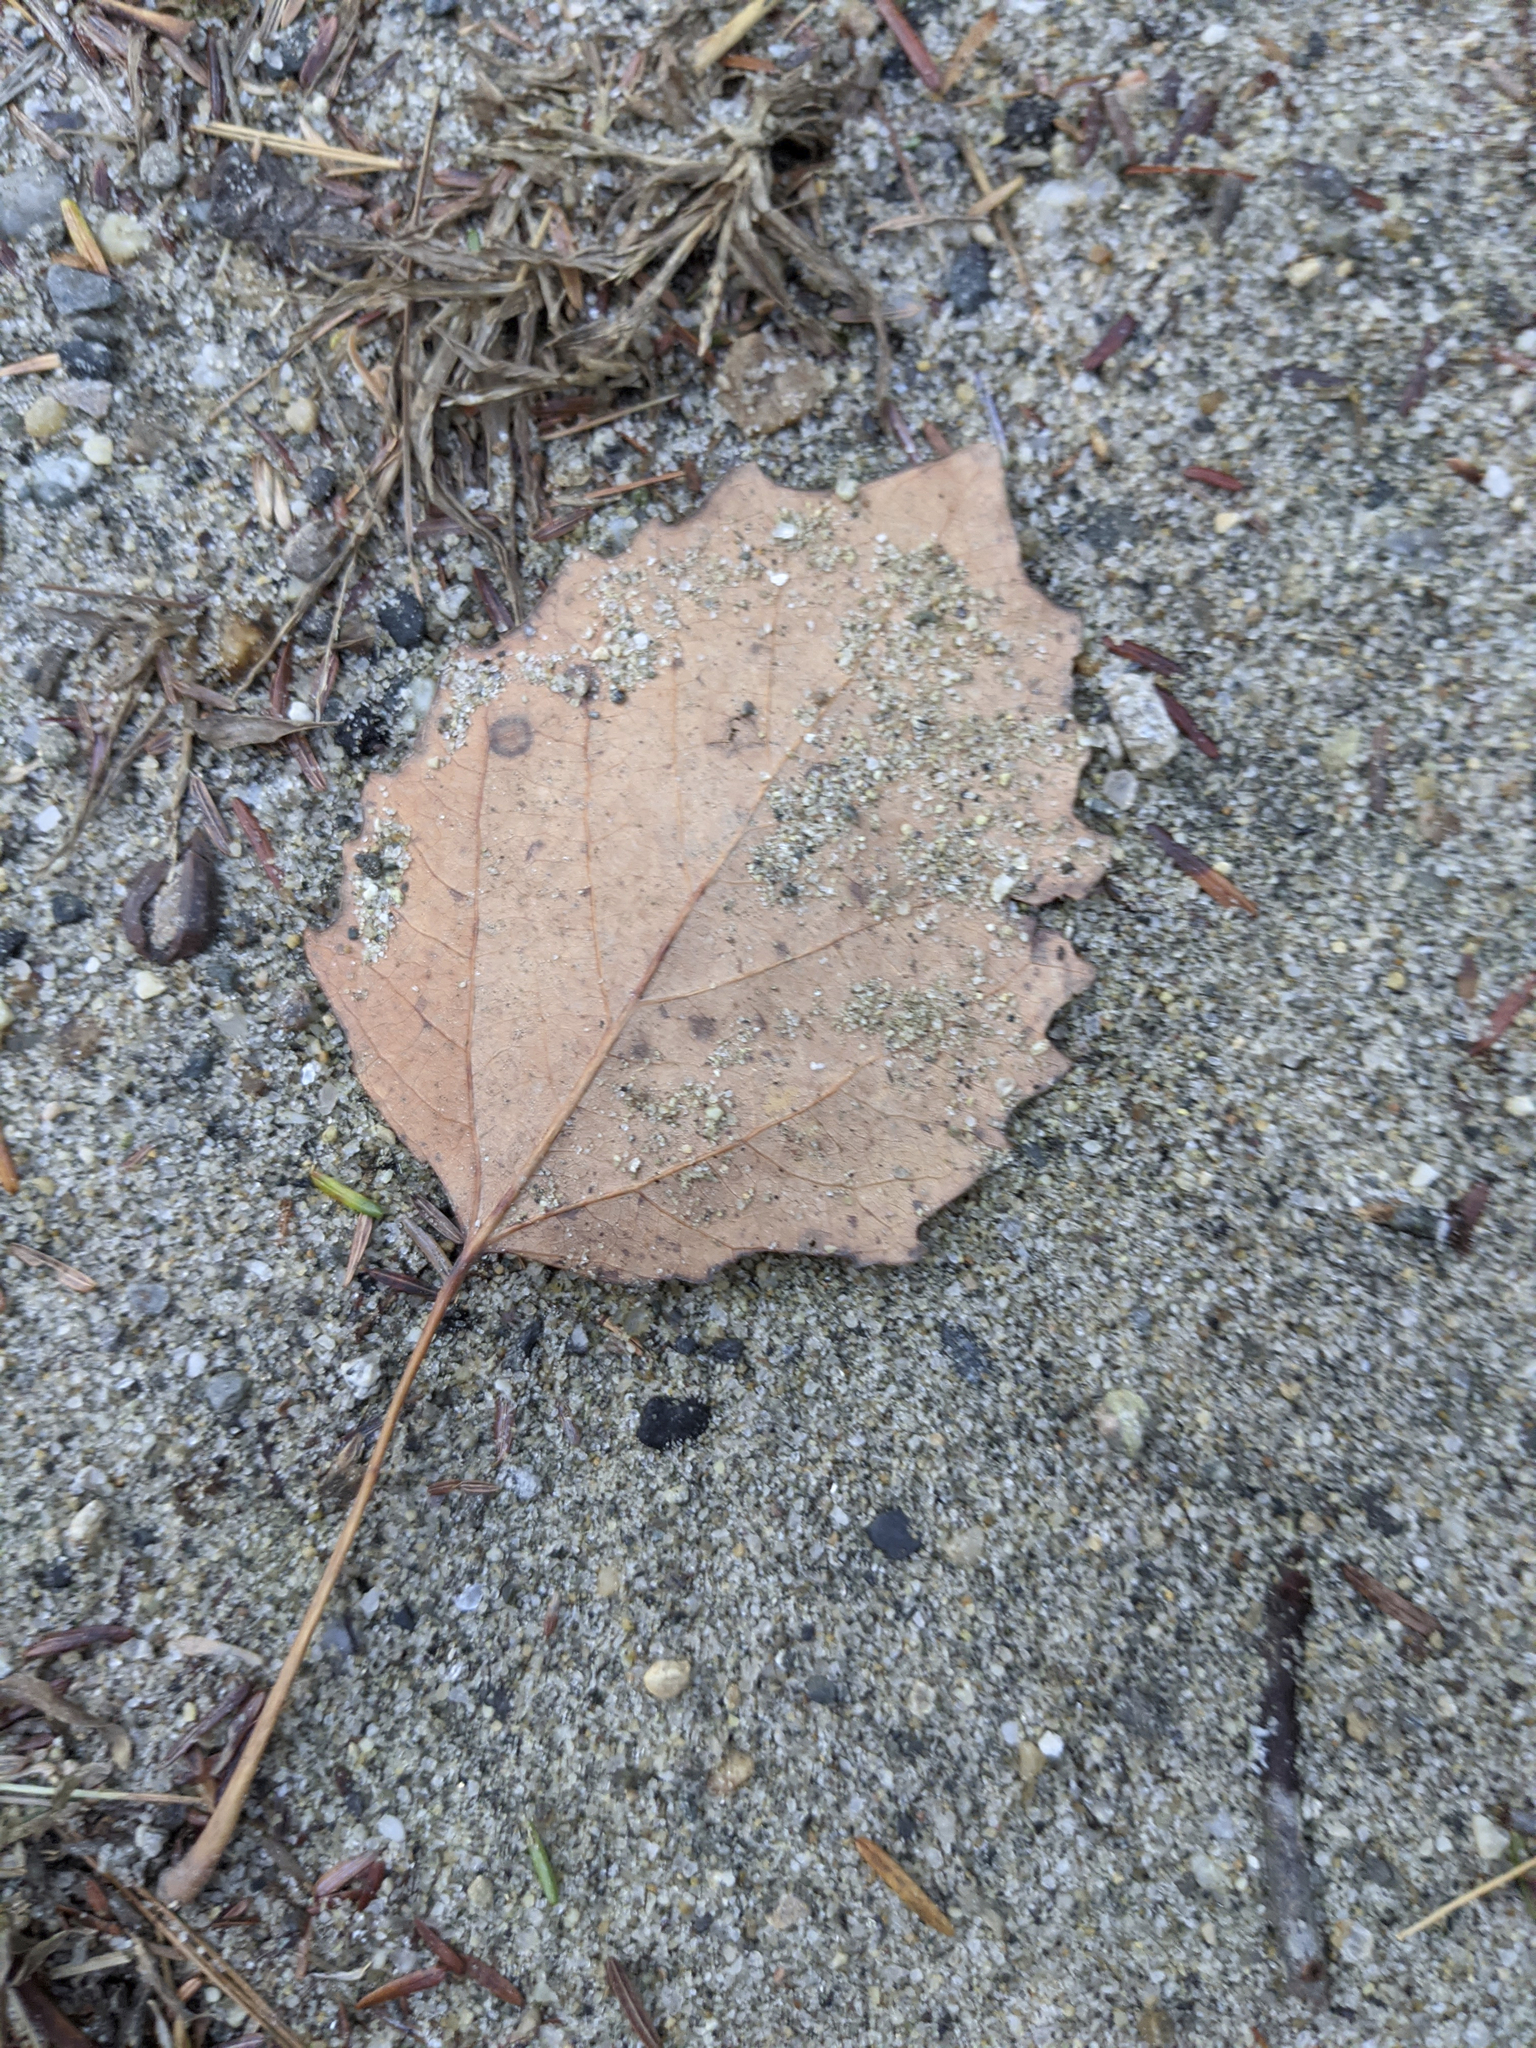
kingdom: Plantae
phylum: Tracheophyta
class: Magnoliopsida
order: Malpighiales
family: Salicaceae
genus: Populus
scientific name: Populus grandidentata
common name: Bigtooth aspen
